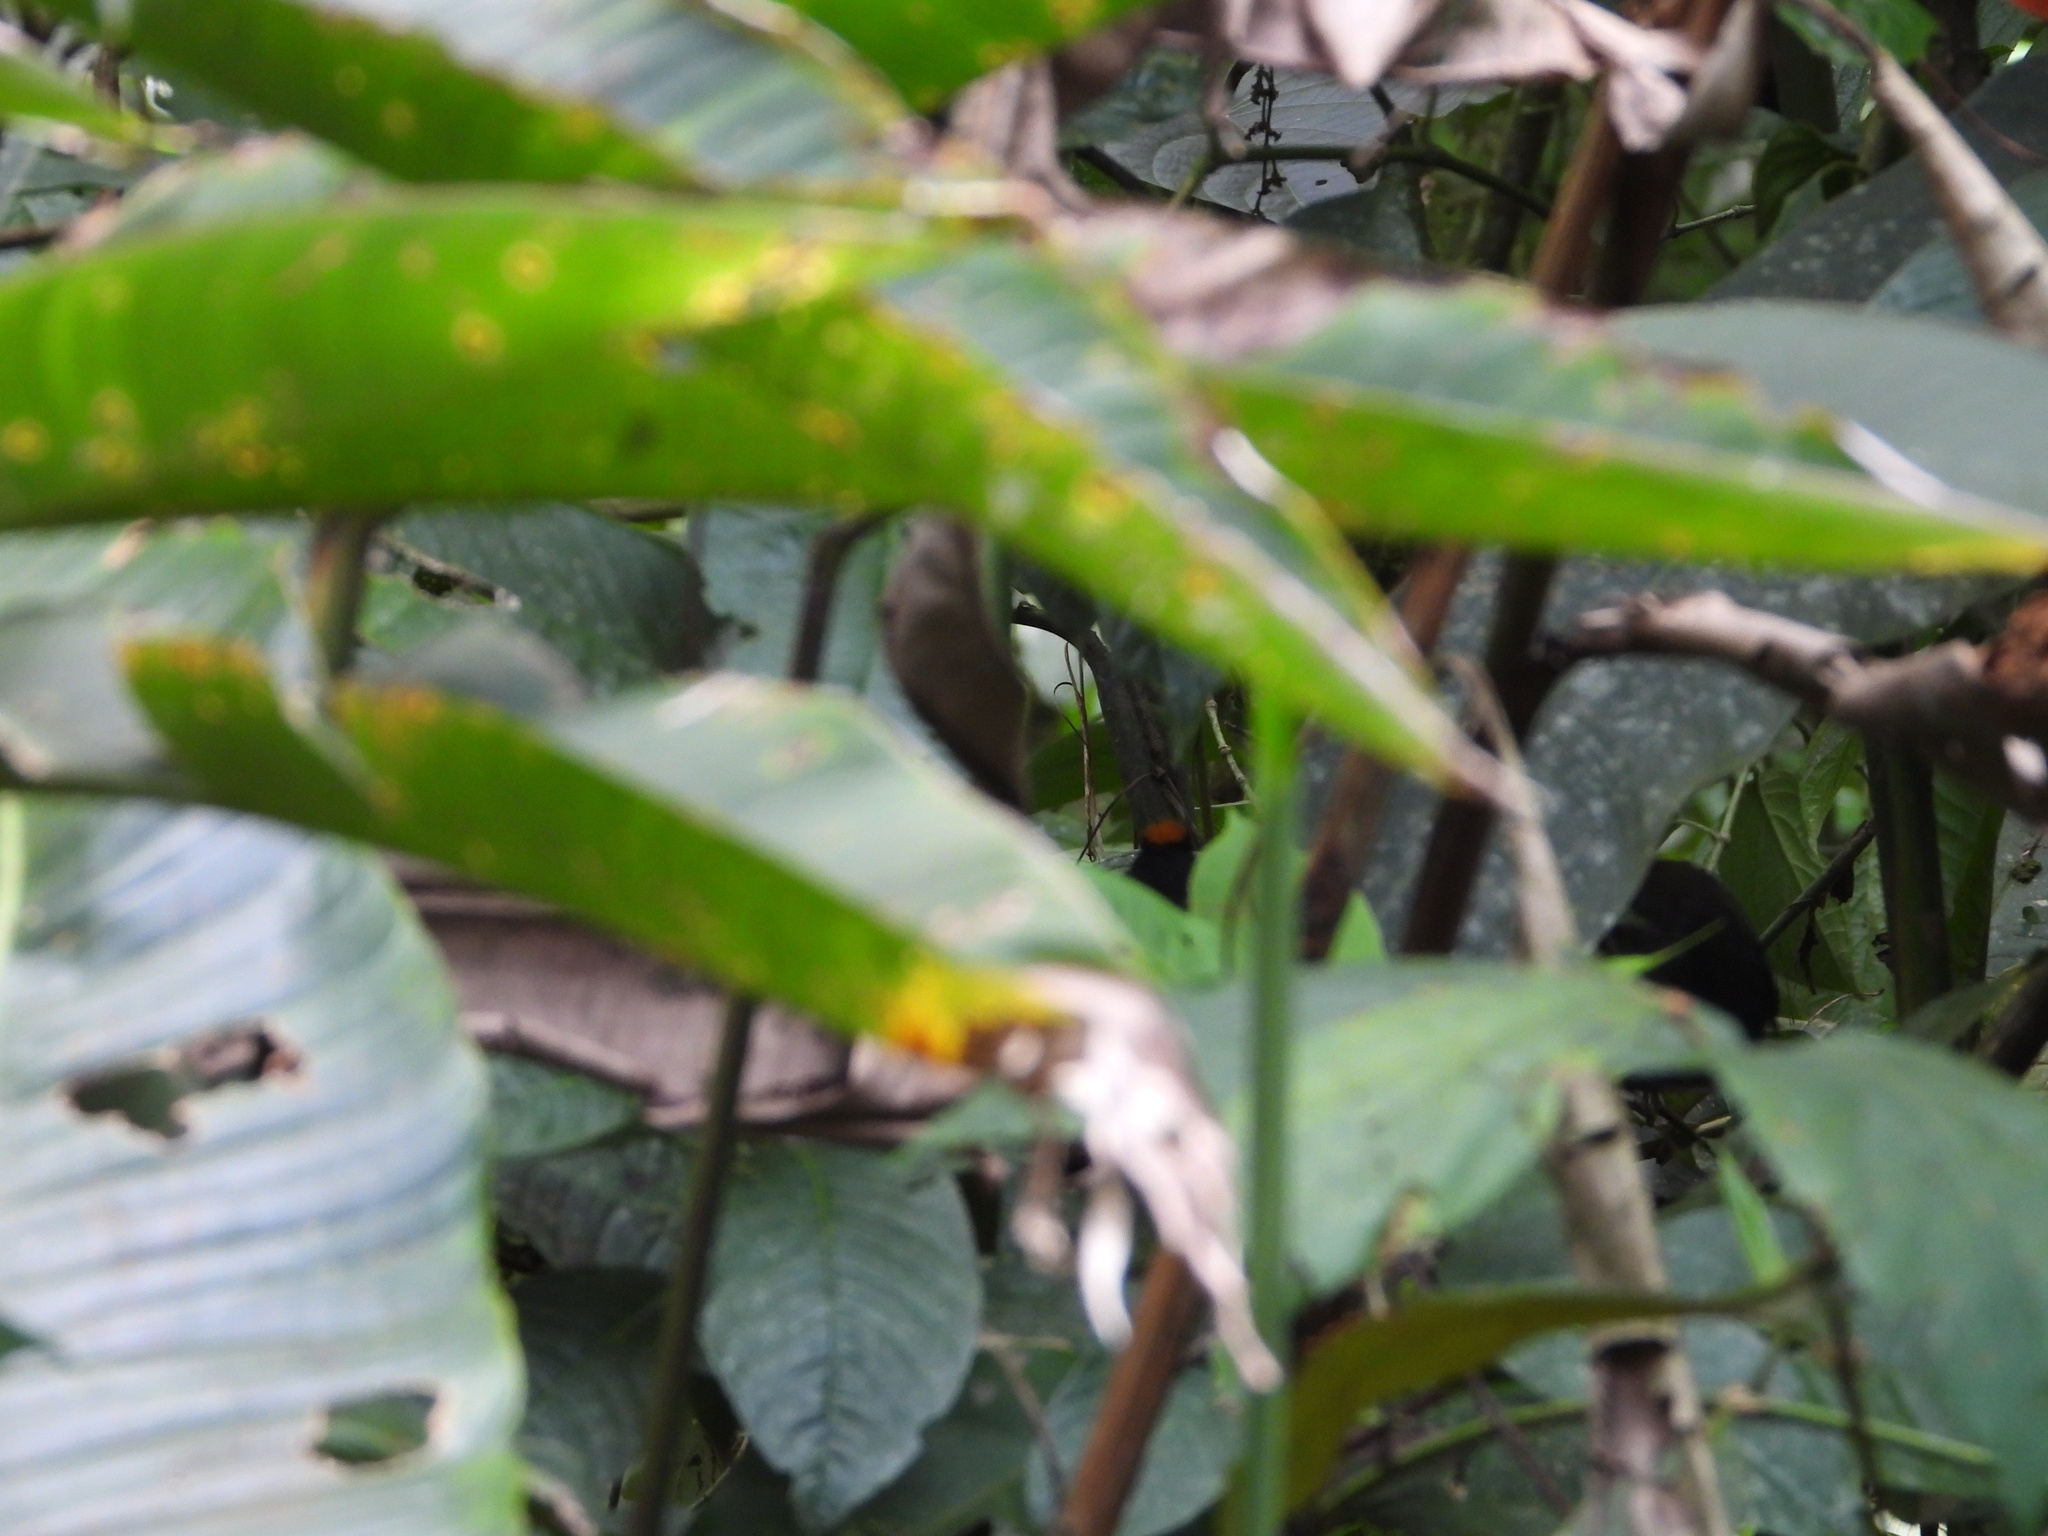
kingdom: Animalia
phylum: Chordata
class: Aves
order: Passeriformes
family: Thraupidae
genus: Tachyphonus
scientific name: Tachyphonus delatrii
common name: Tawny-crested tanager
